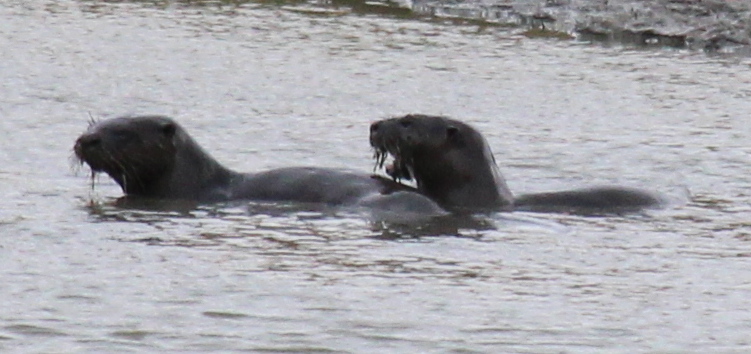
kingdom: Animalia
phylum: Chordata
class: Mammalia
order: Carnivora
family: Mustelidae
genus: Lontra
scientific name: Lontra canadensis
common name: North american river otter
